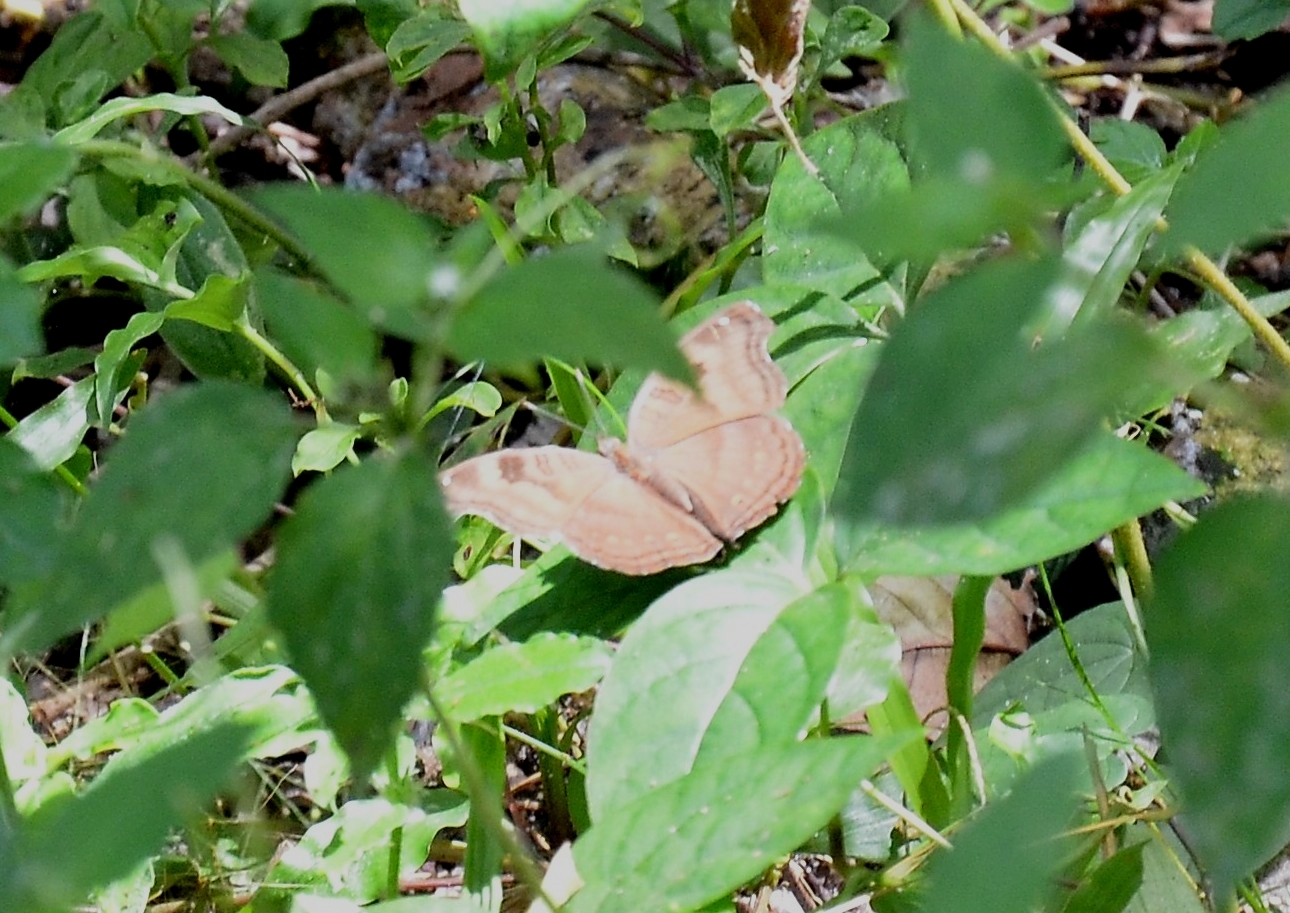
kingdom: Animalia
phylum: Arthropoda
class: Insecta
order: Lepidoptera
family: Nymphalidae
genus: Junonia
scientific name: Junonia iphita
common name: Chocolate pansy
